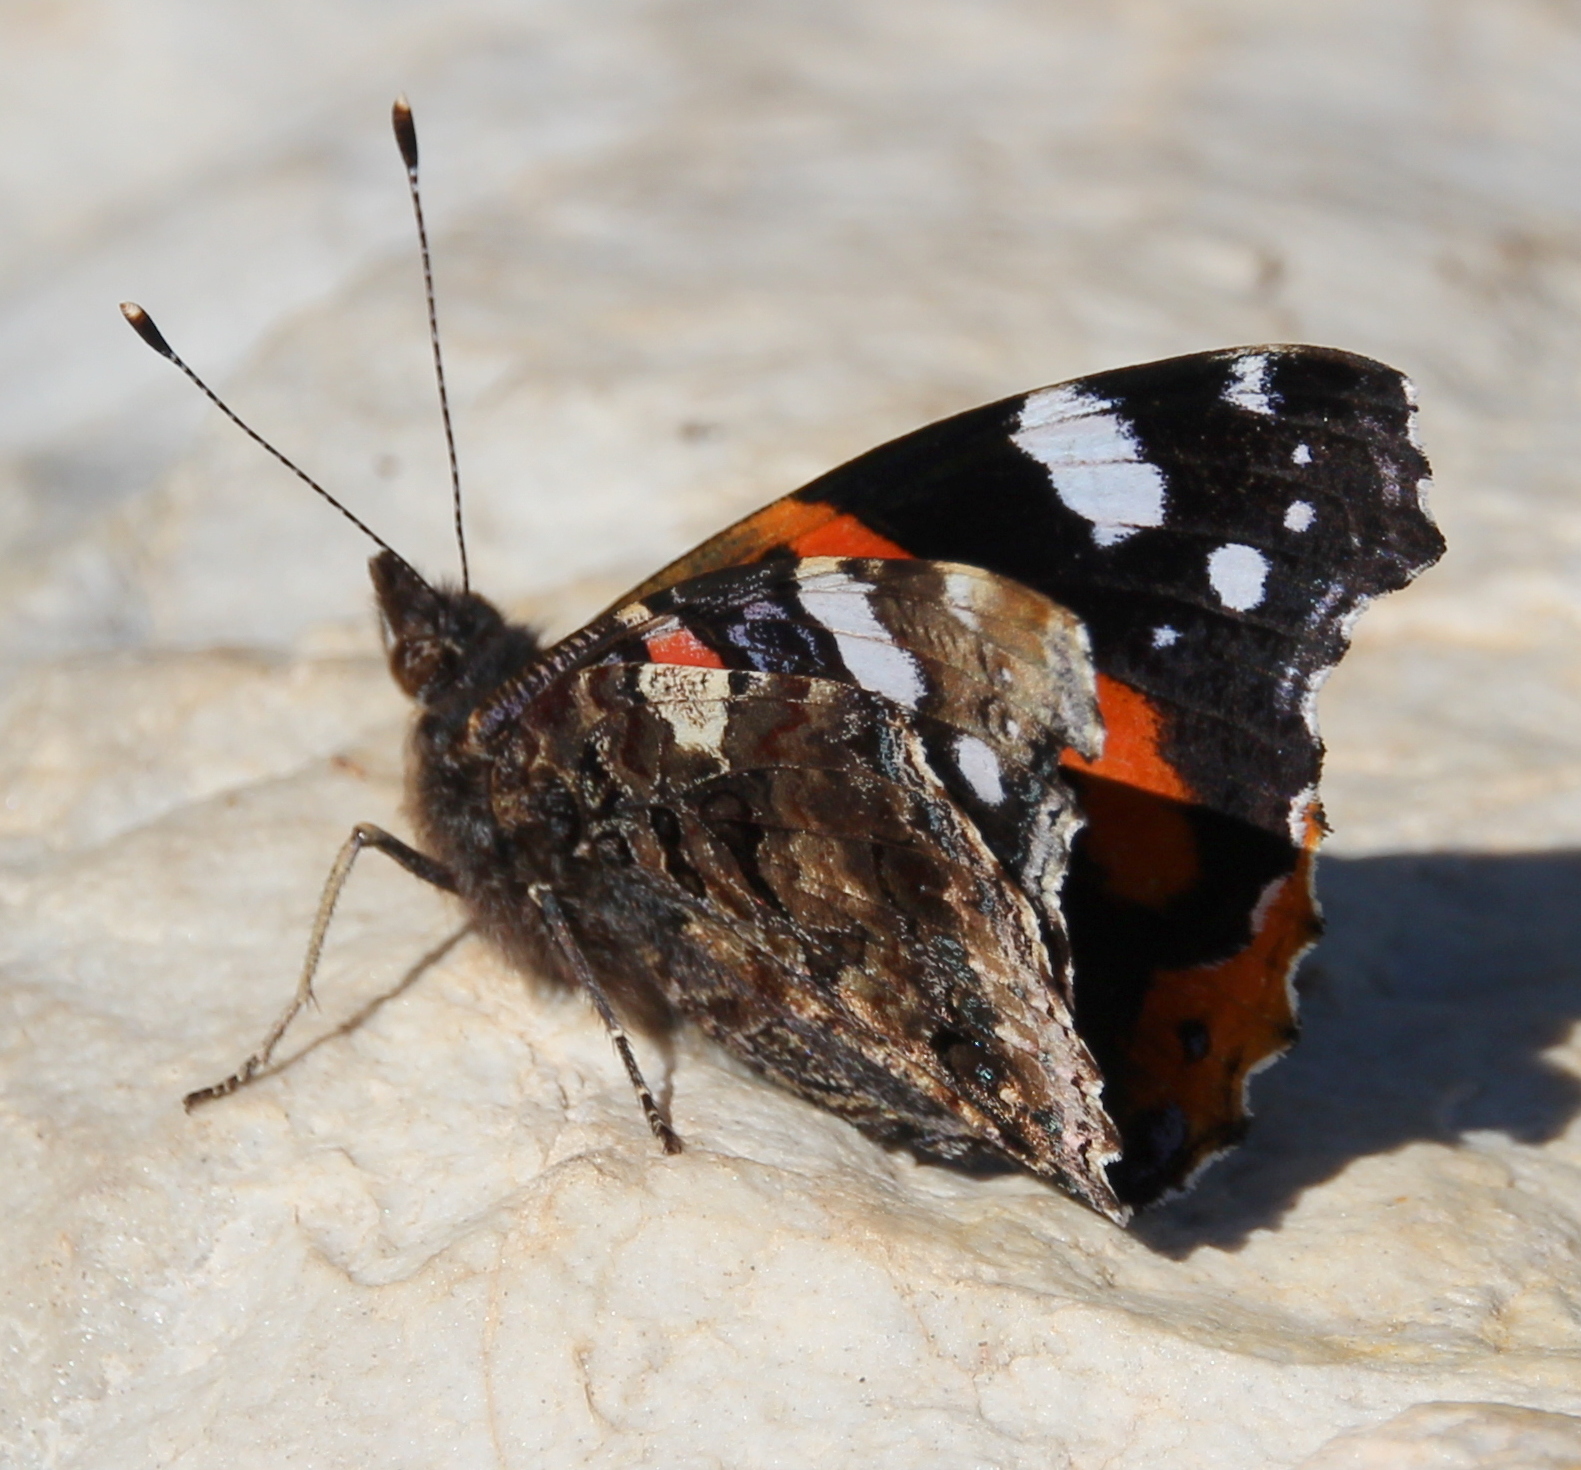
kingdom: Animalia
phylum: Arthropoda
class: Insecta
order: Lepidoptera
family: Nymphalidae
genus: Vanessa
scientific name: Vanessa atalanta
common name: Red admiral
